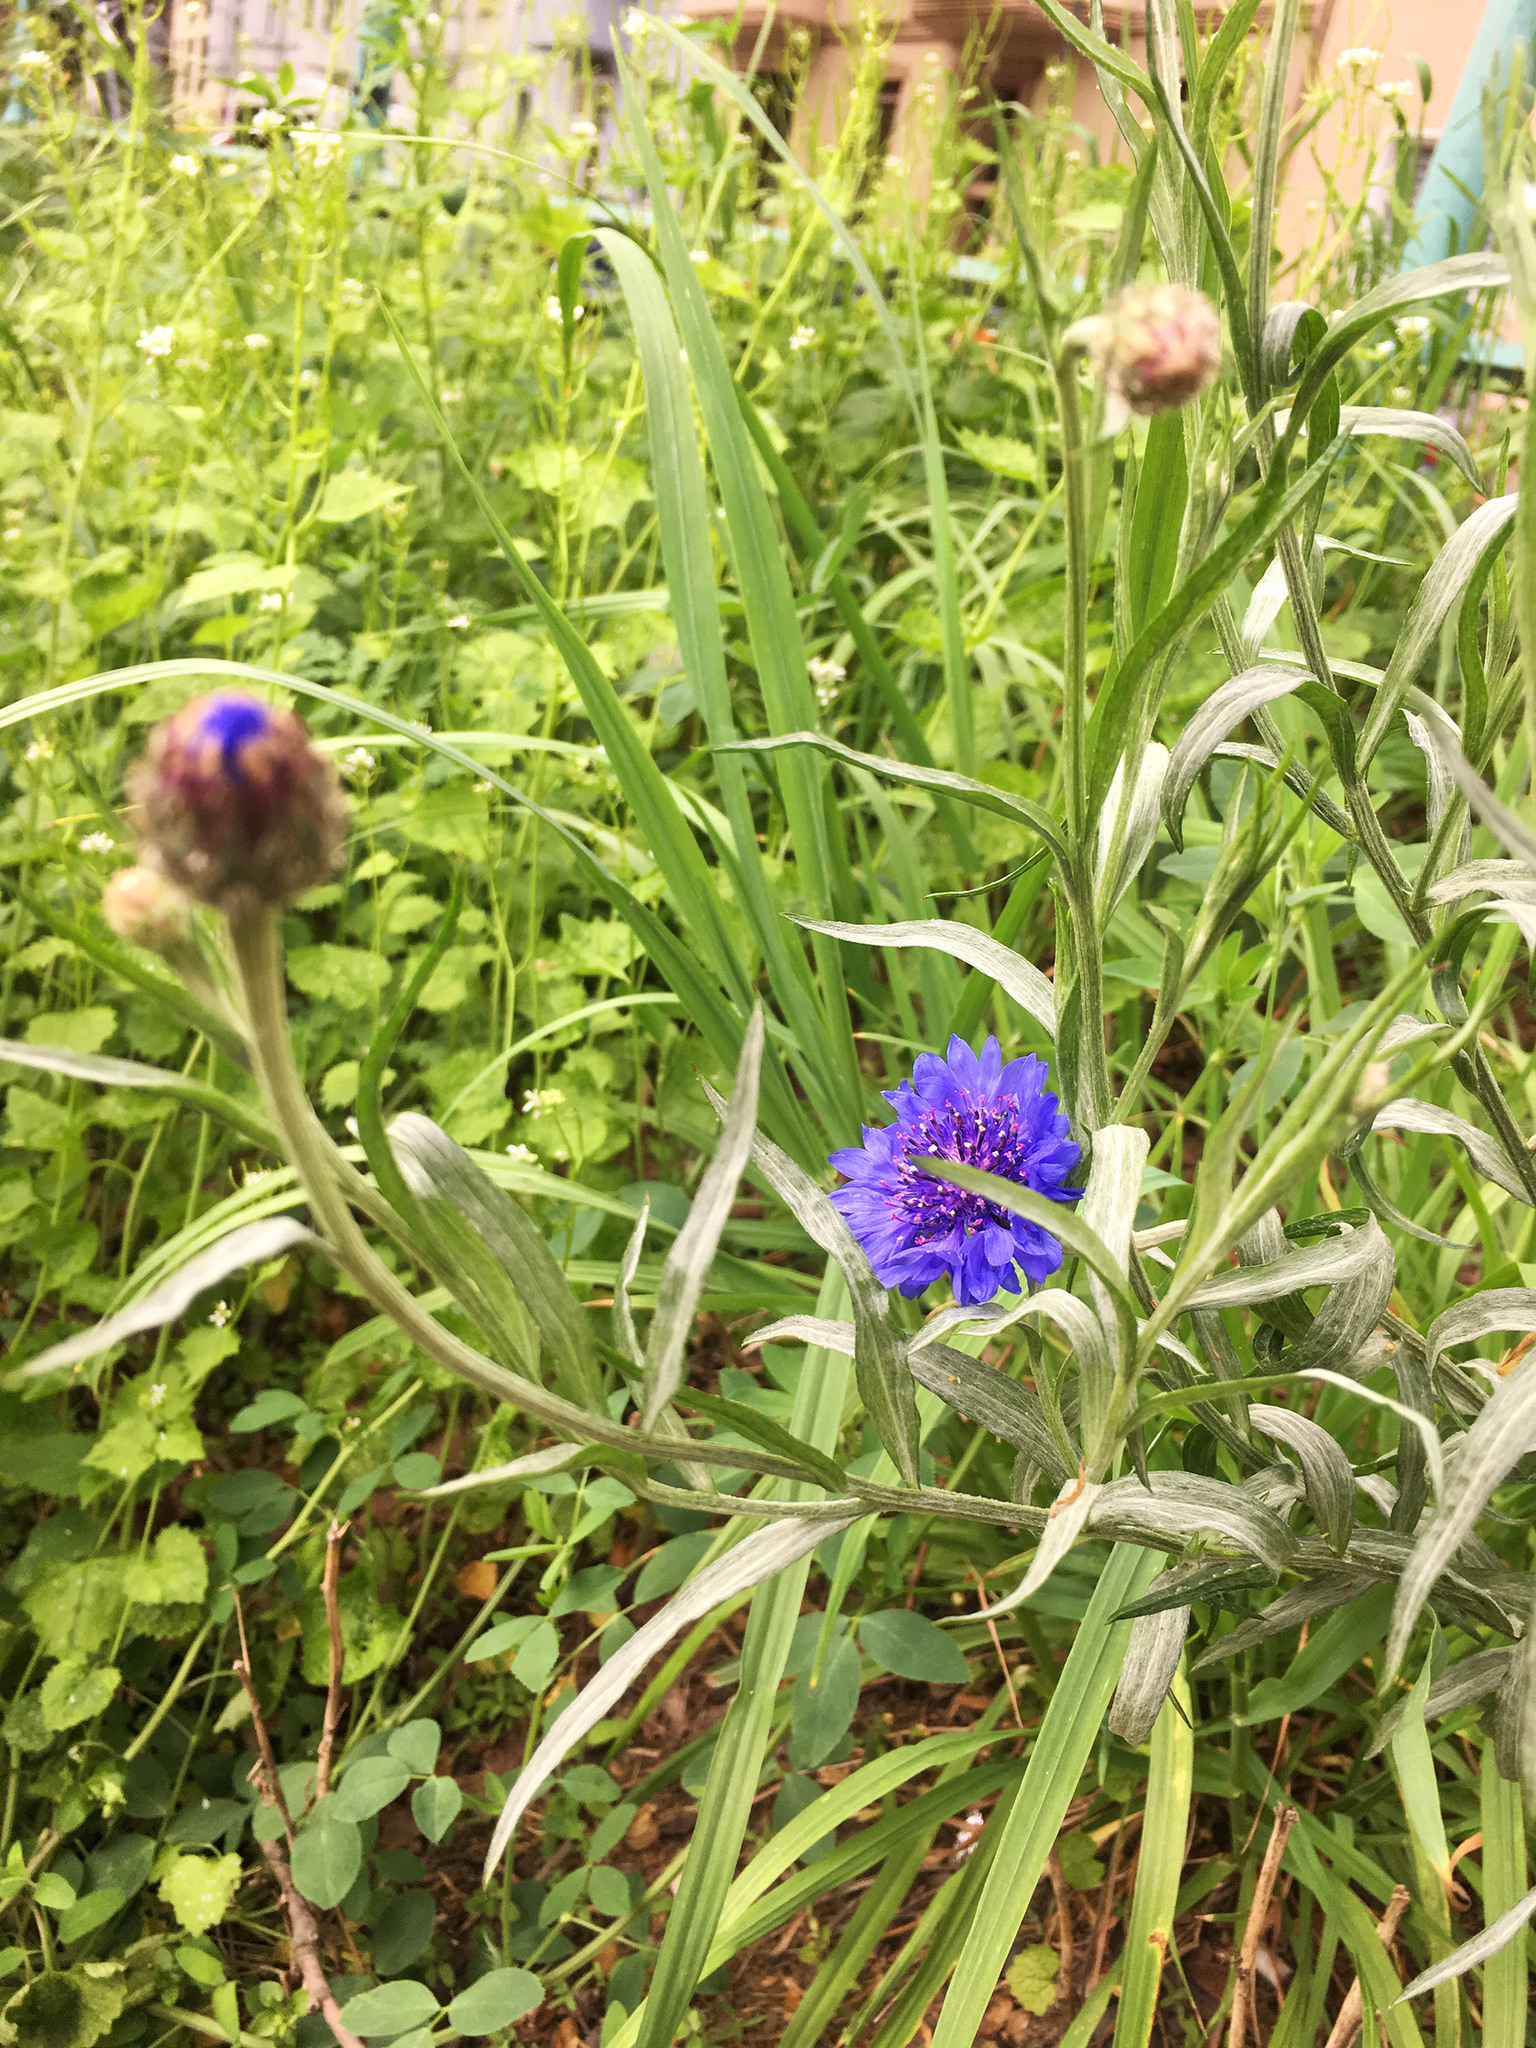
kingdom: Plantae
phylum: Tracheophyta
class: Magnoliopsida
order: Asterales
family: Asteraceae
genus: Centaurea
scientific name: Centaurea cyanus
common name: Cornflower
